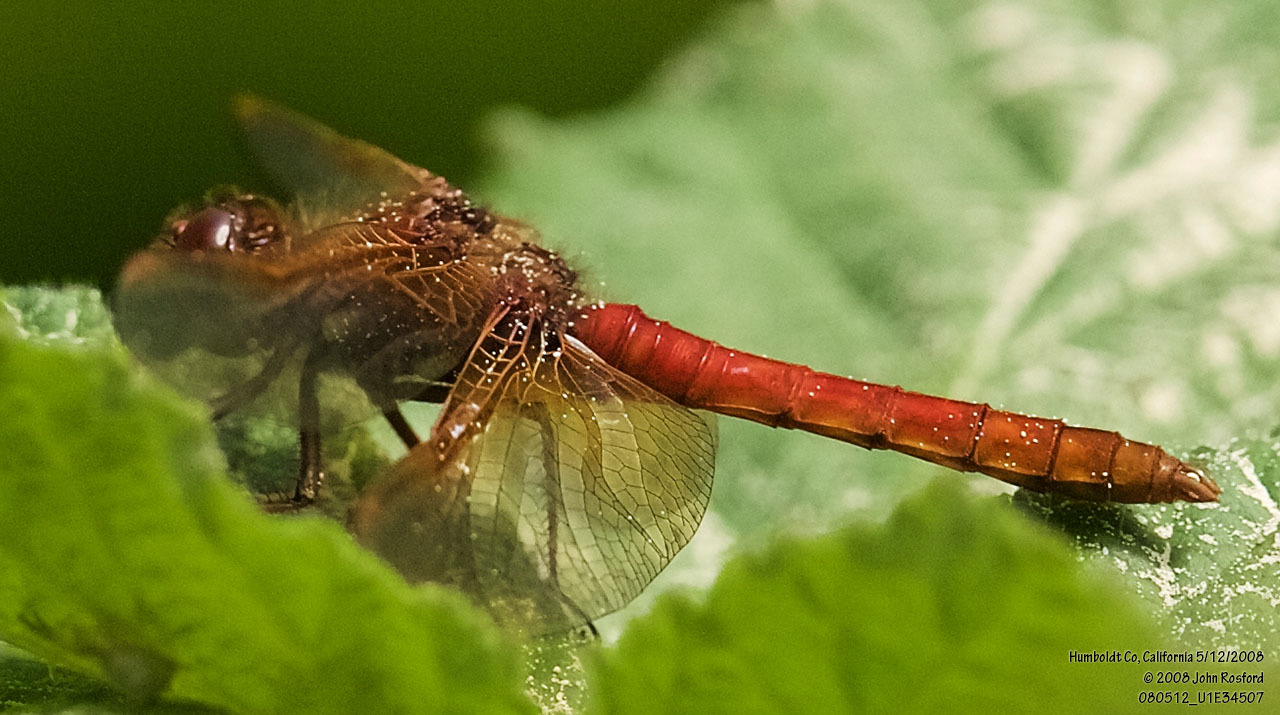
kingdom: Animalia
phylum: Arthropoda
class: Insecta
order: Odonata
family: Libellulidae
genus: Sympetrum
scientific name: Sympetrum illotum
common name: Cardinal meadowhawk
